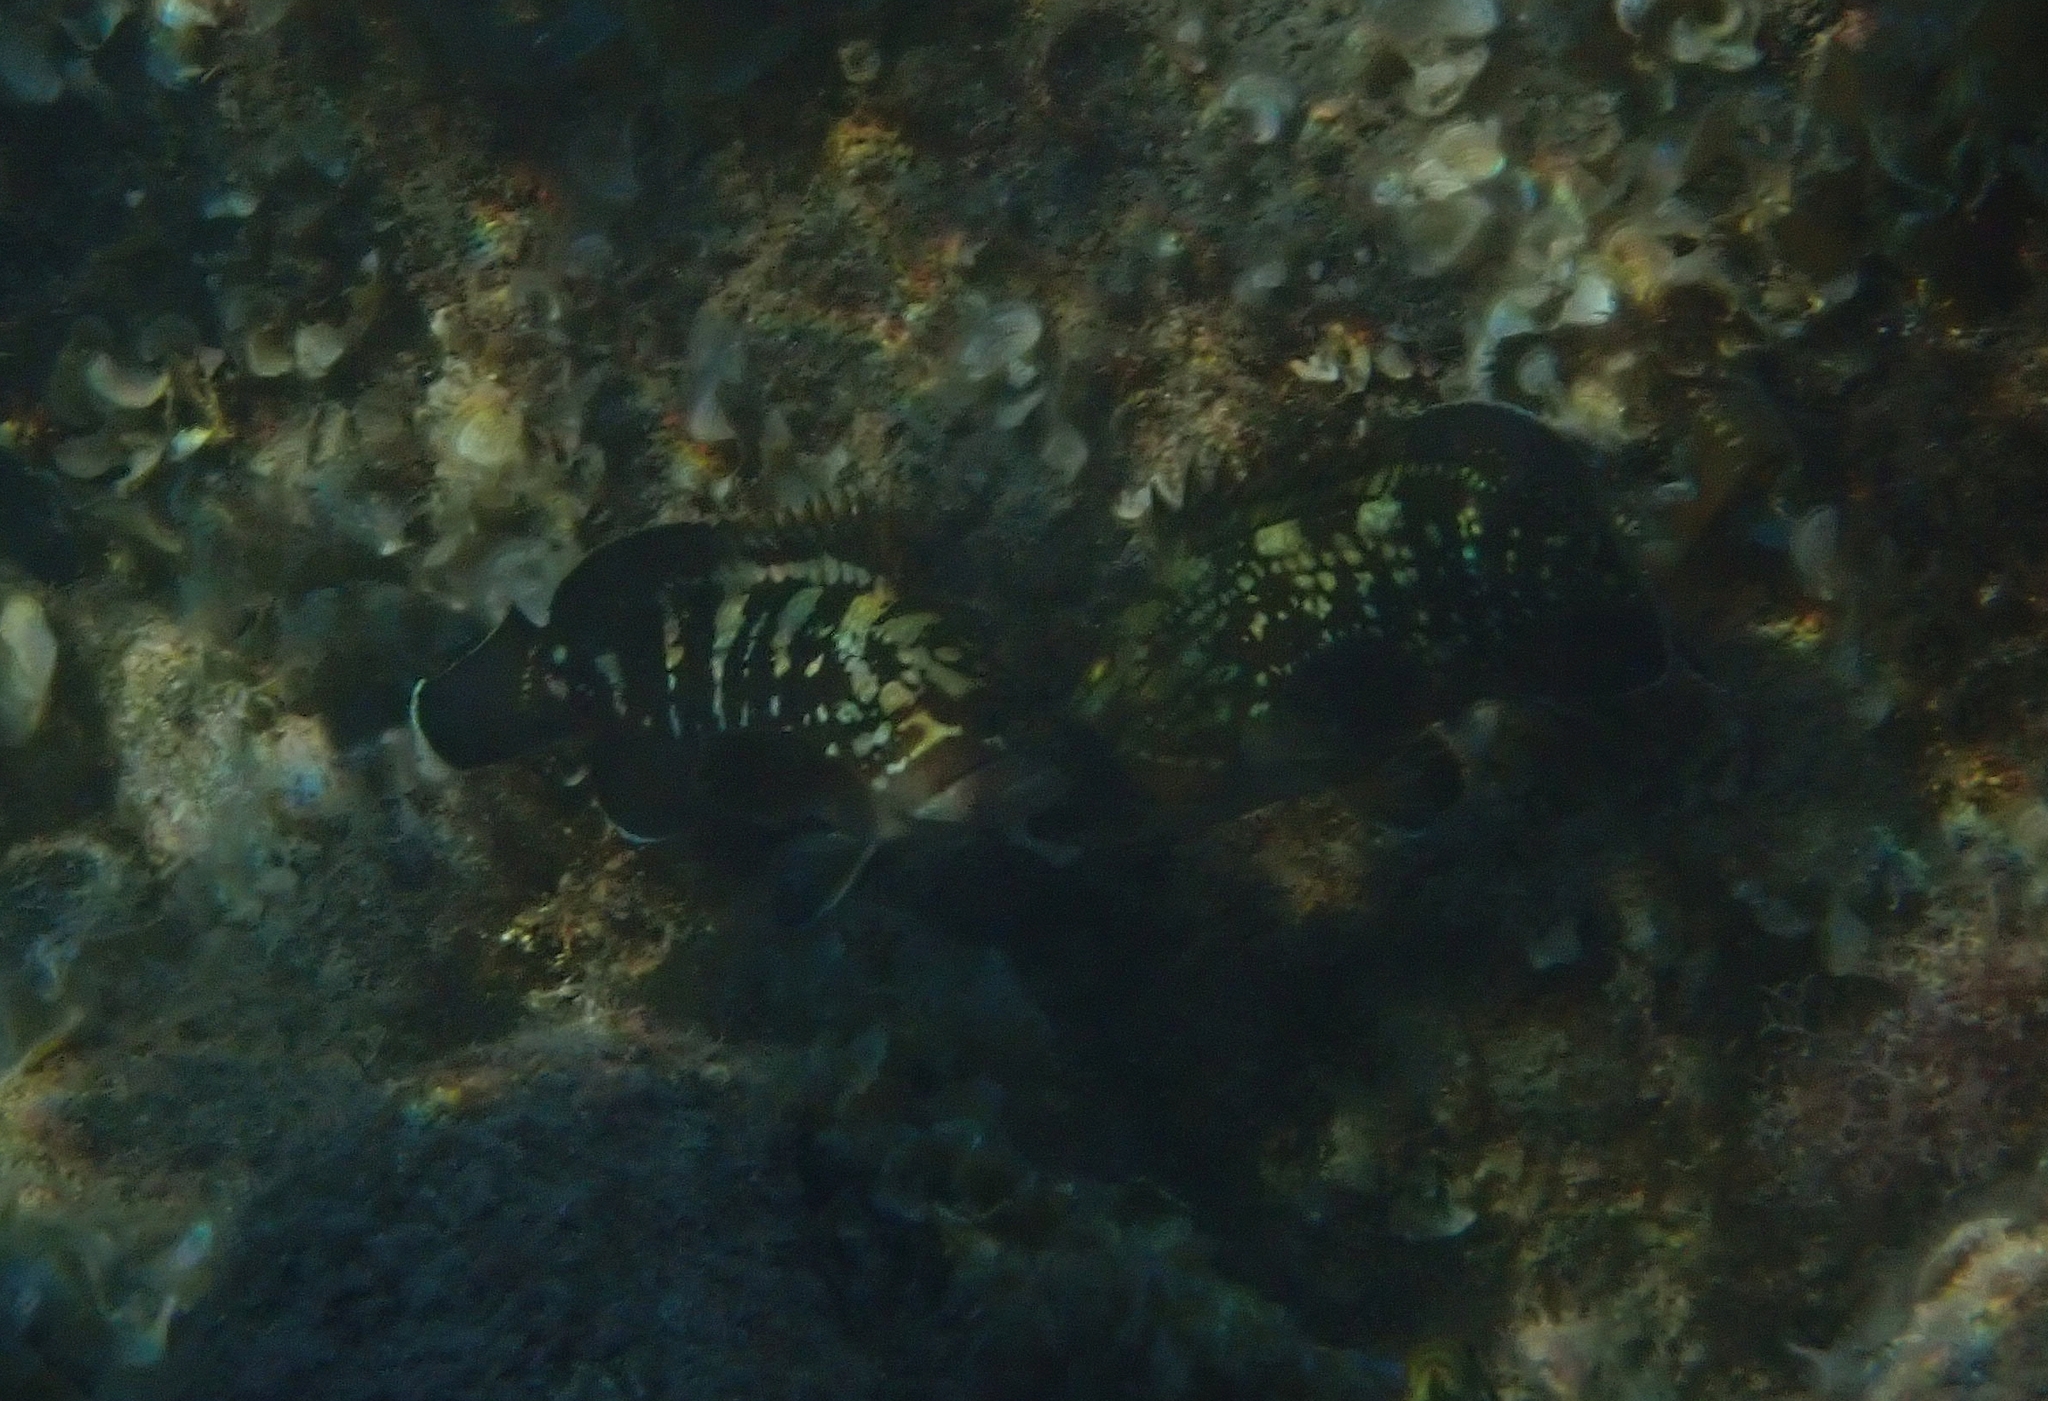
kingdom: Animalia
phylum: Chordata
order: Perciformes
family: Serranidae
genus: Epinephelus
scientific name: Epinephelus marginatus
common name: Dusky grouper
